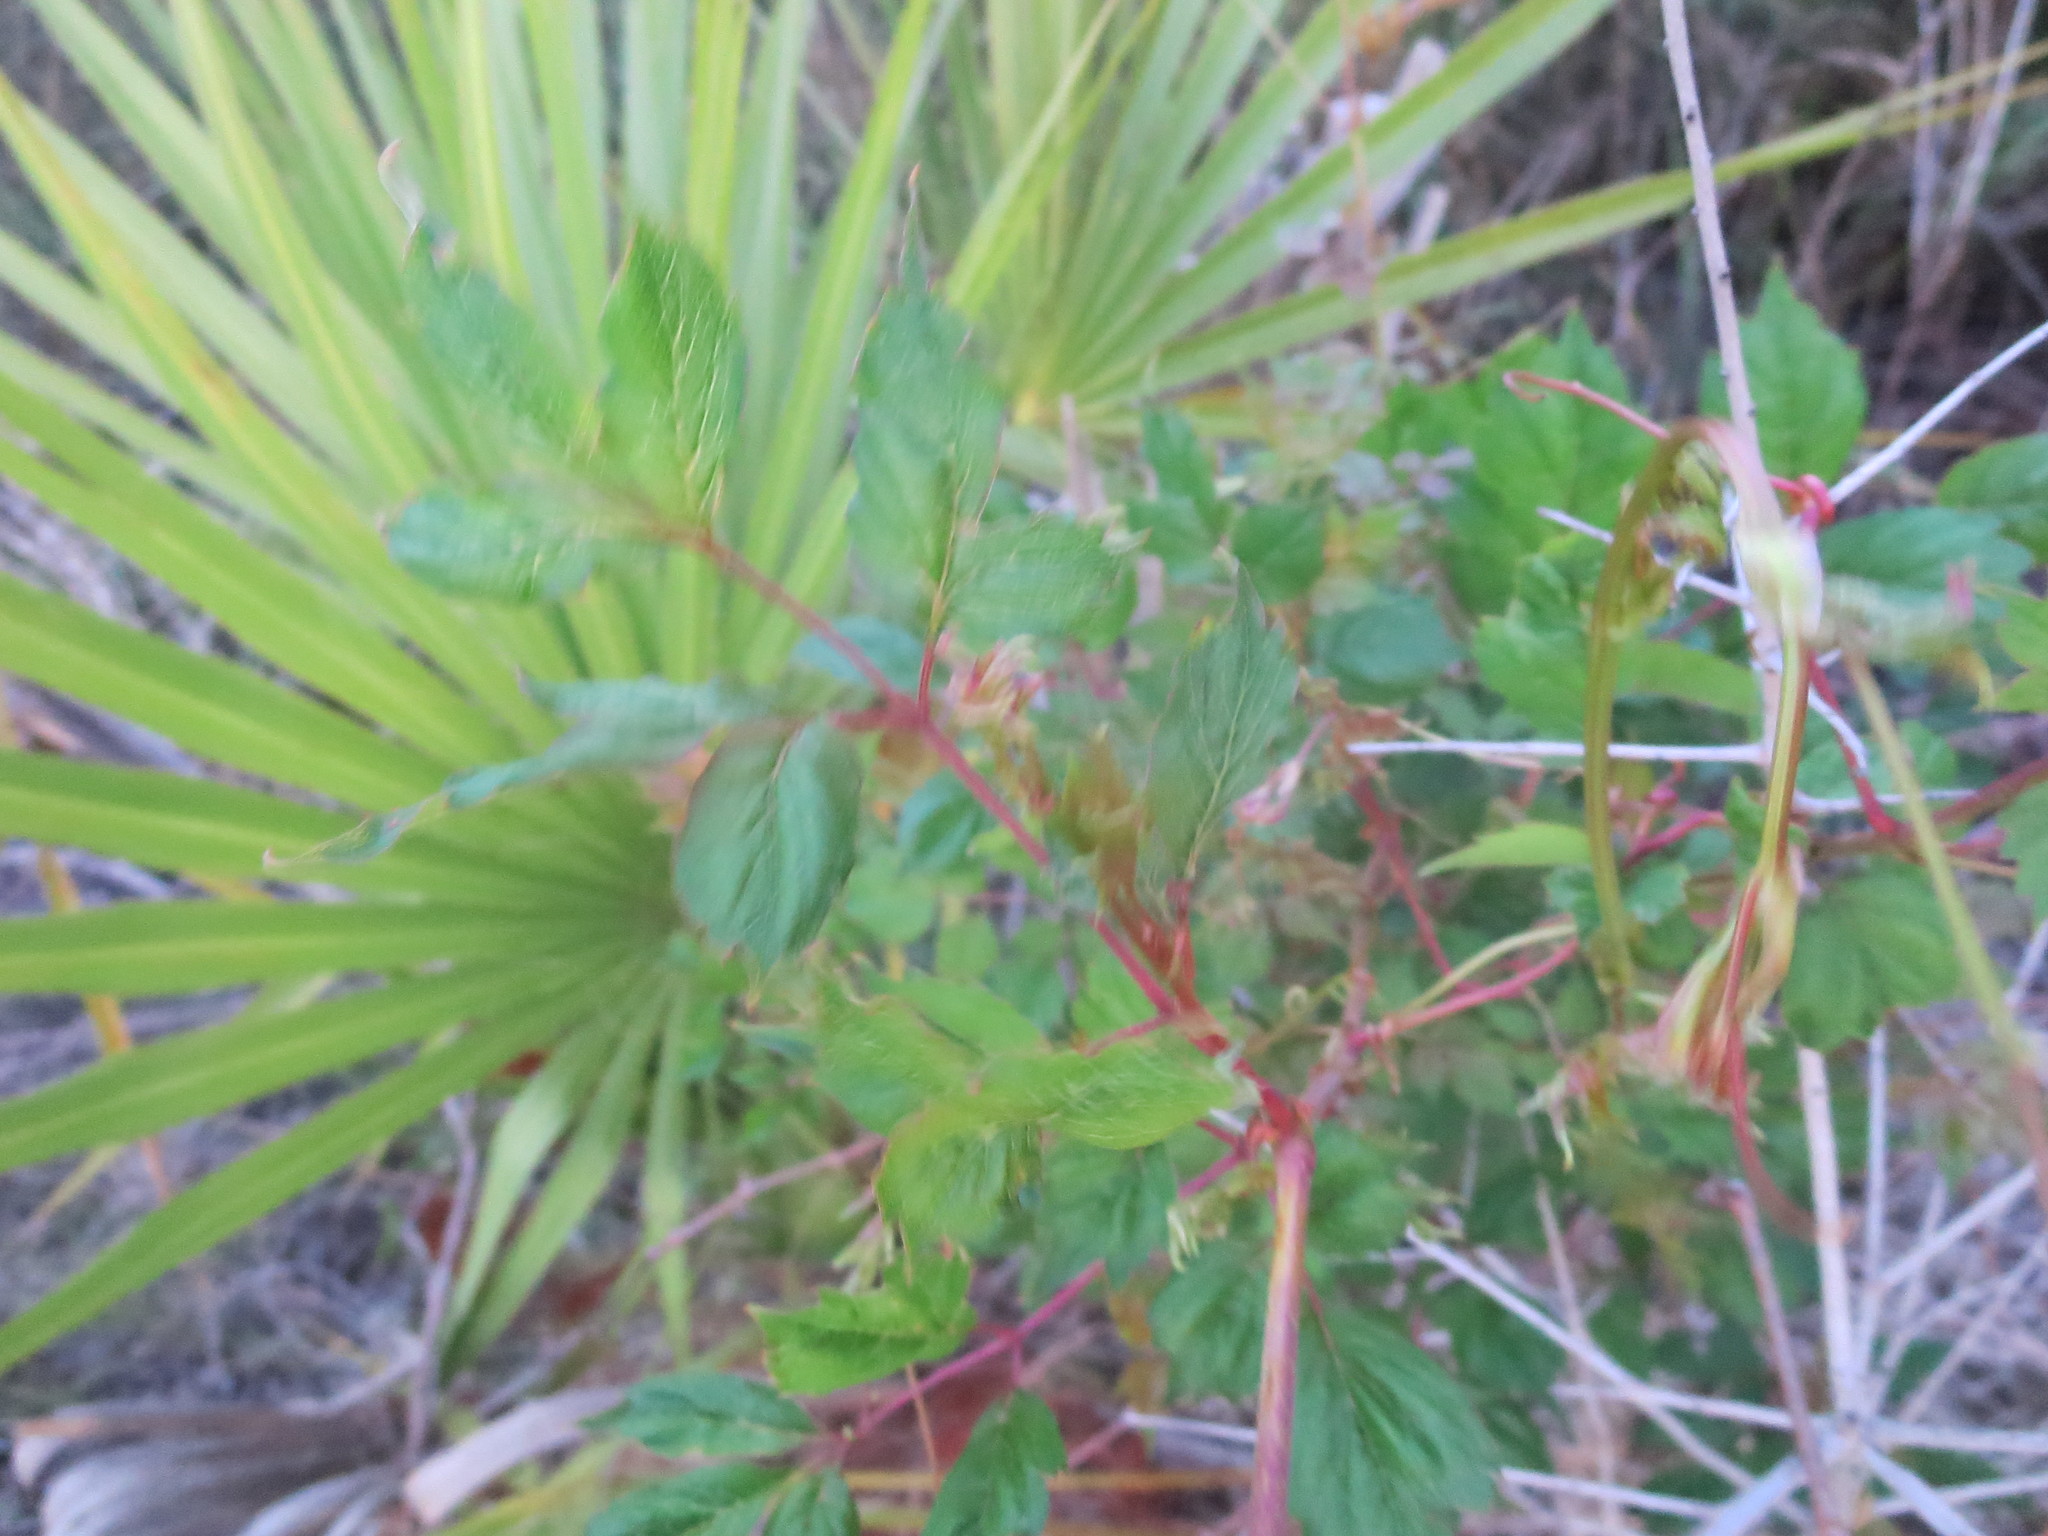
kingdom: Plantae
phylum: Tracheophyta
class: Magnoliopsida
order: Vitales
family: Vitaceae
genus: Nekemias
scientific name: Nekemias arborea
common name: Peppervine
